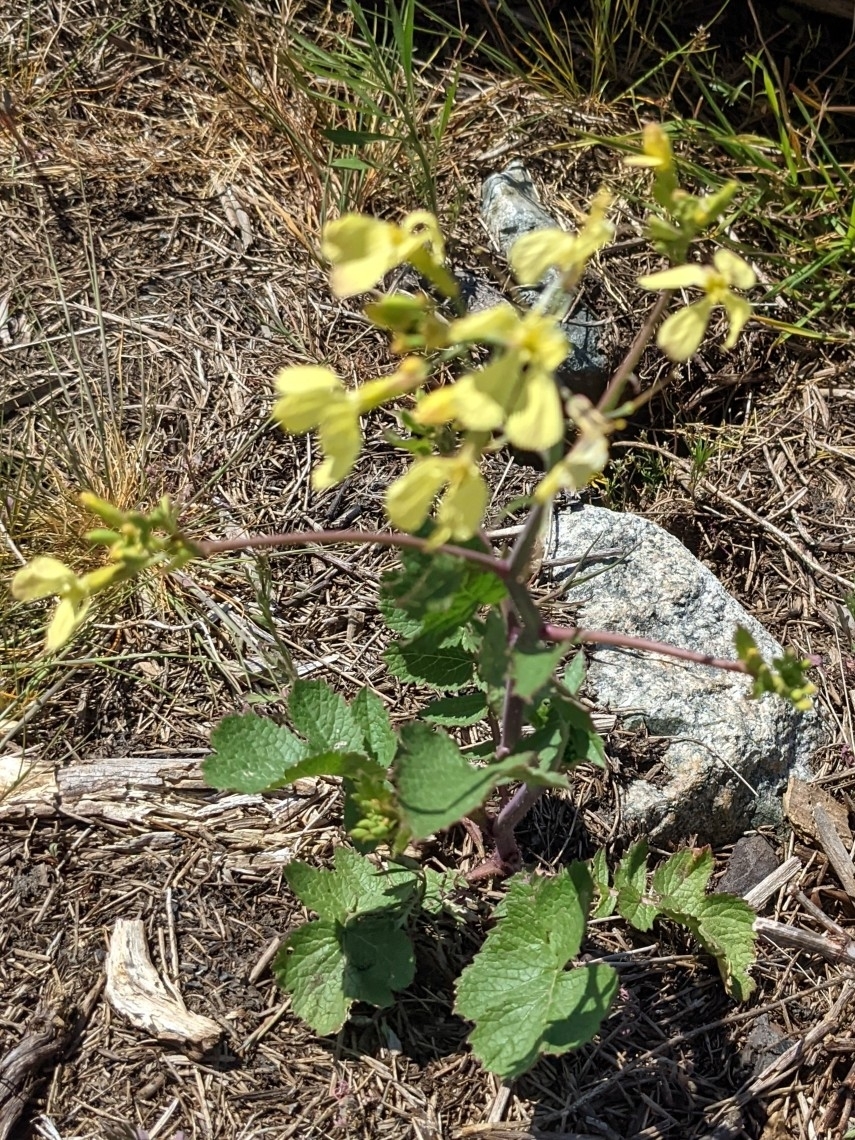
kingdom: Plantae
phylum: Tracheophyta
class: Magnoliopsida
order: Brassicales
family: Brassicaceae
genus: Raphanus
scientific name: Raphanus raphanistrum
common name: Wild radish
